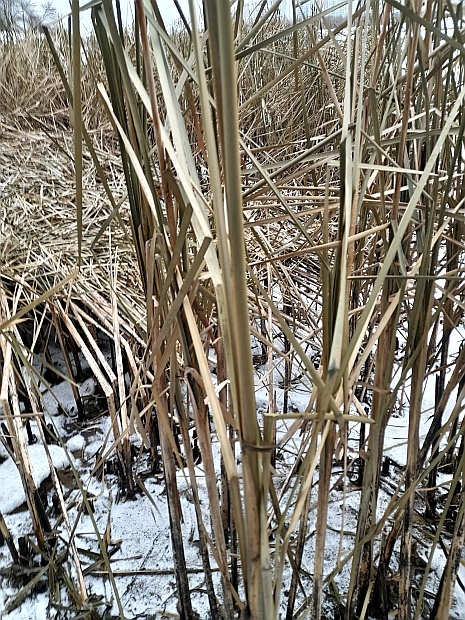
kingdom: Plantae
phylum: Tracheophyta
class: Liliopsida
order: Poales
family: Typhaceae
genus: Typha
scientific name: Typha angustifolia
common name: Lesser bulrush
